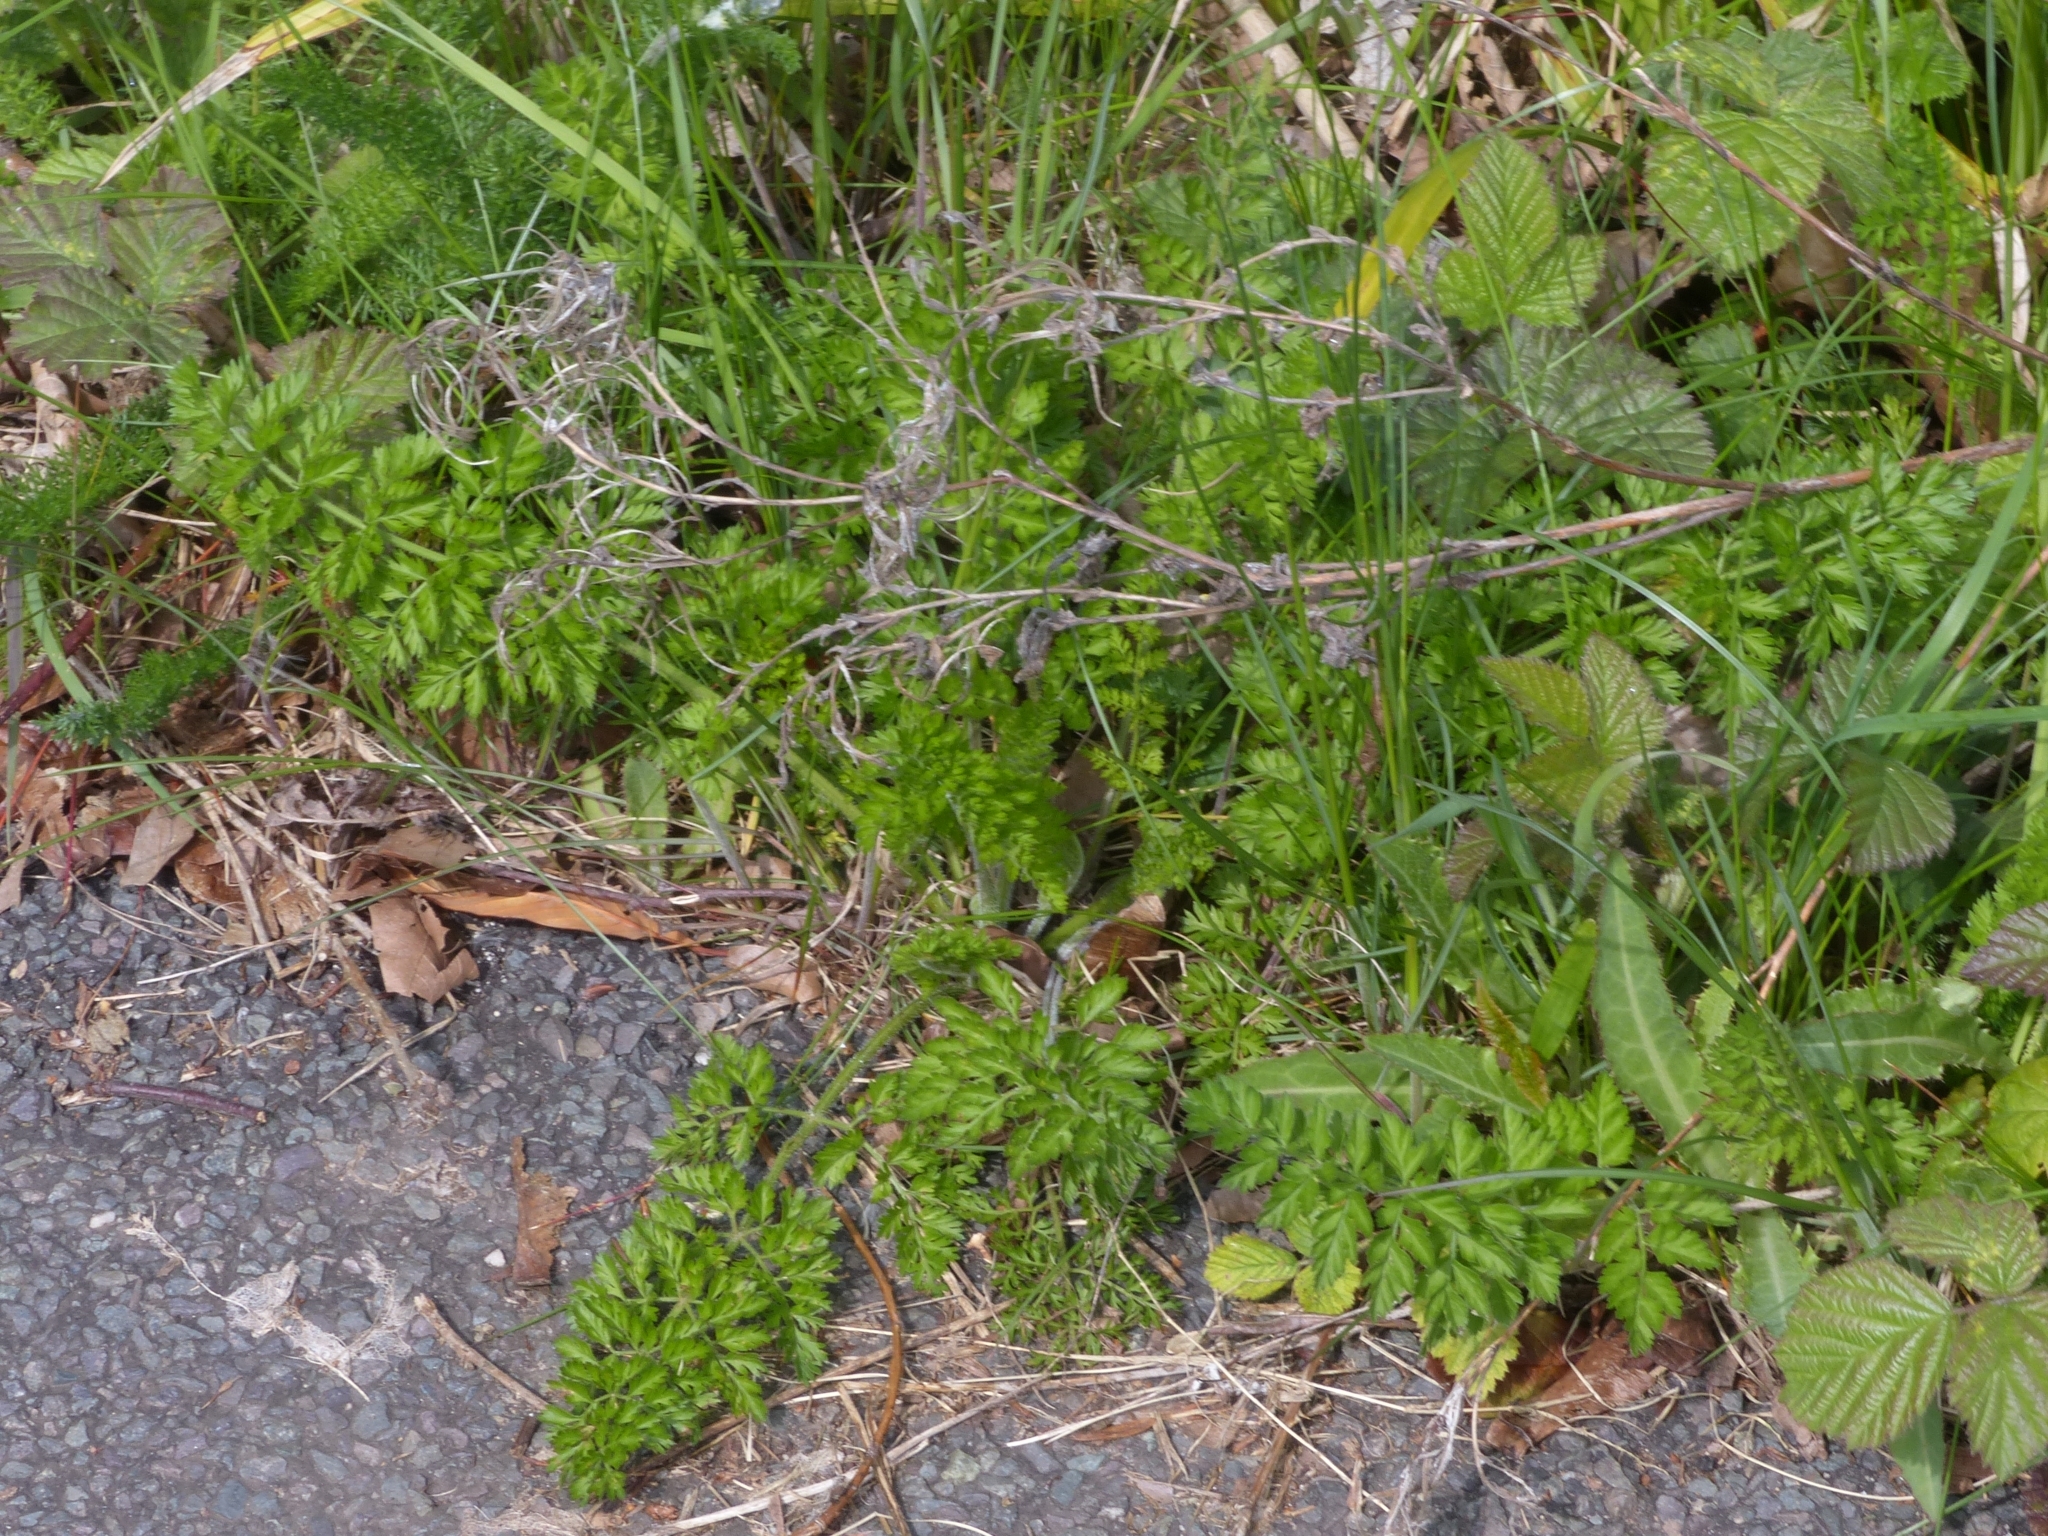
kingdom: Plantae
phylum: Tracheophyta
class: Magnoliopsida
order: Apiales
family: Apiaceae
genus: Daucus
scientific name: Daucus carota
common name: Wild carrot
